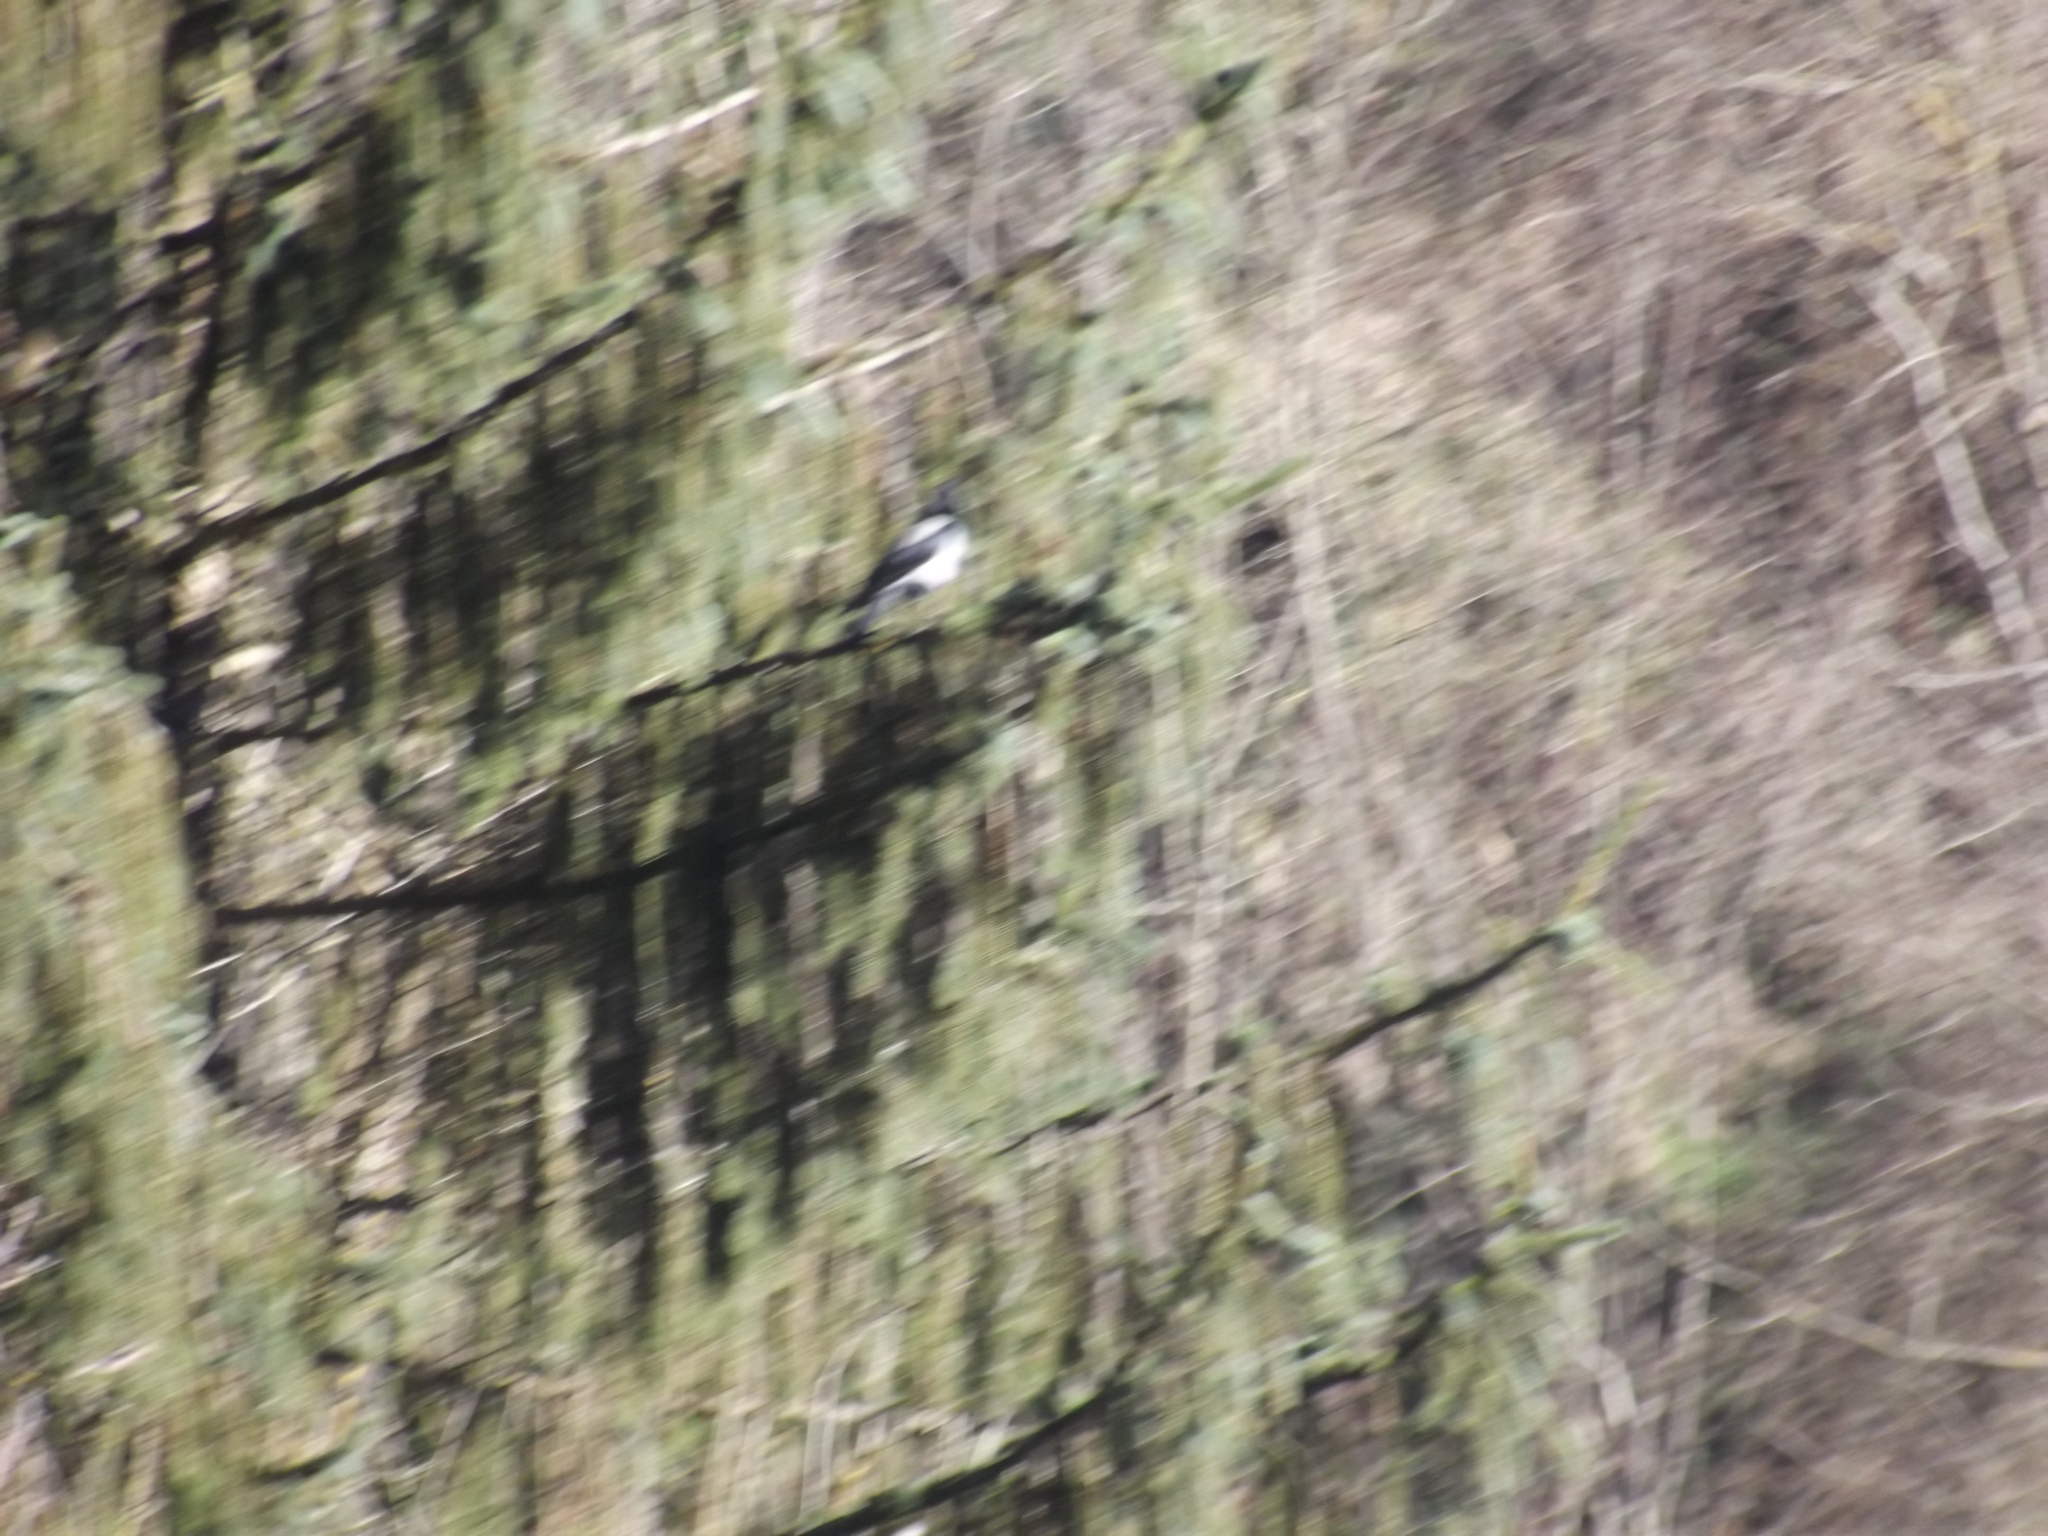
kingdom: Animalia
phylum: Chordata
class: Aves
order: Passeriformes
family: Corvidae
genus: Corvus
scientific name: Corvus cornix
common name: Hooded crow
